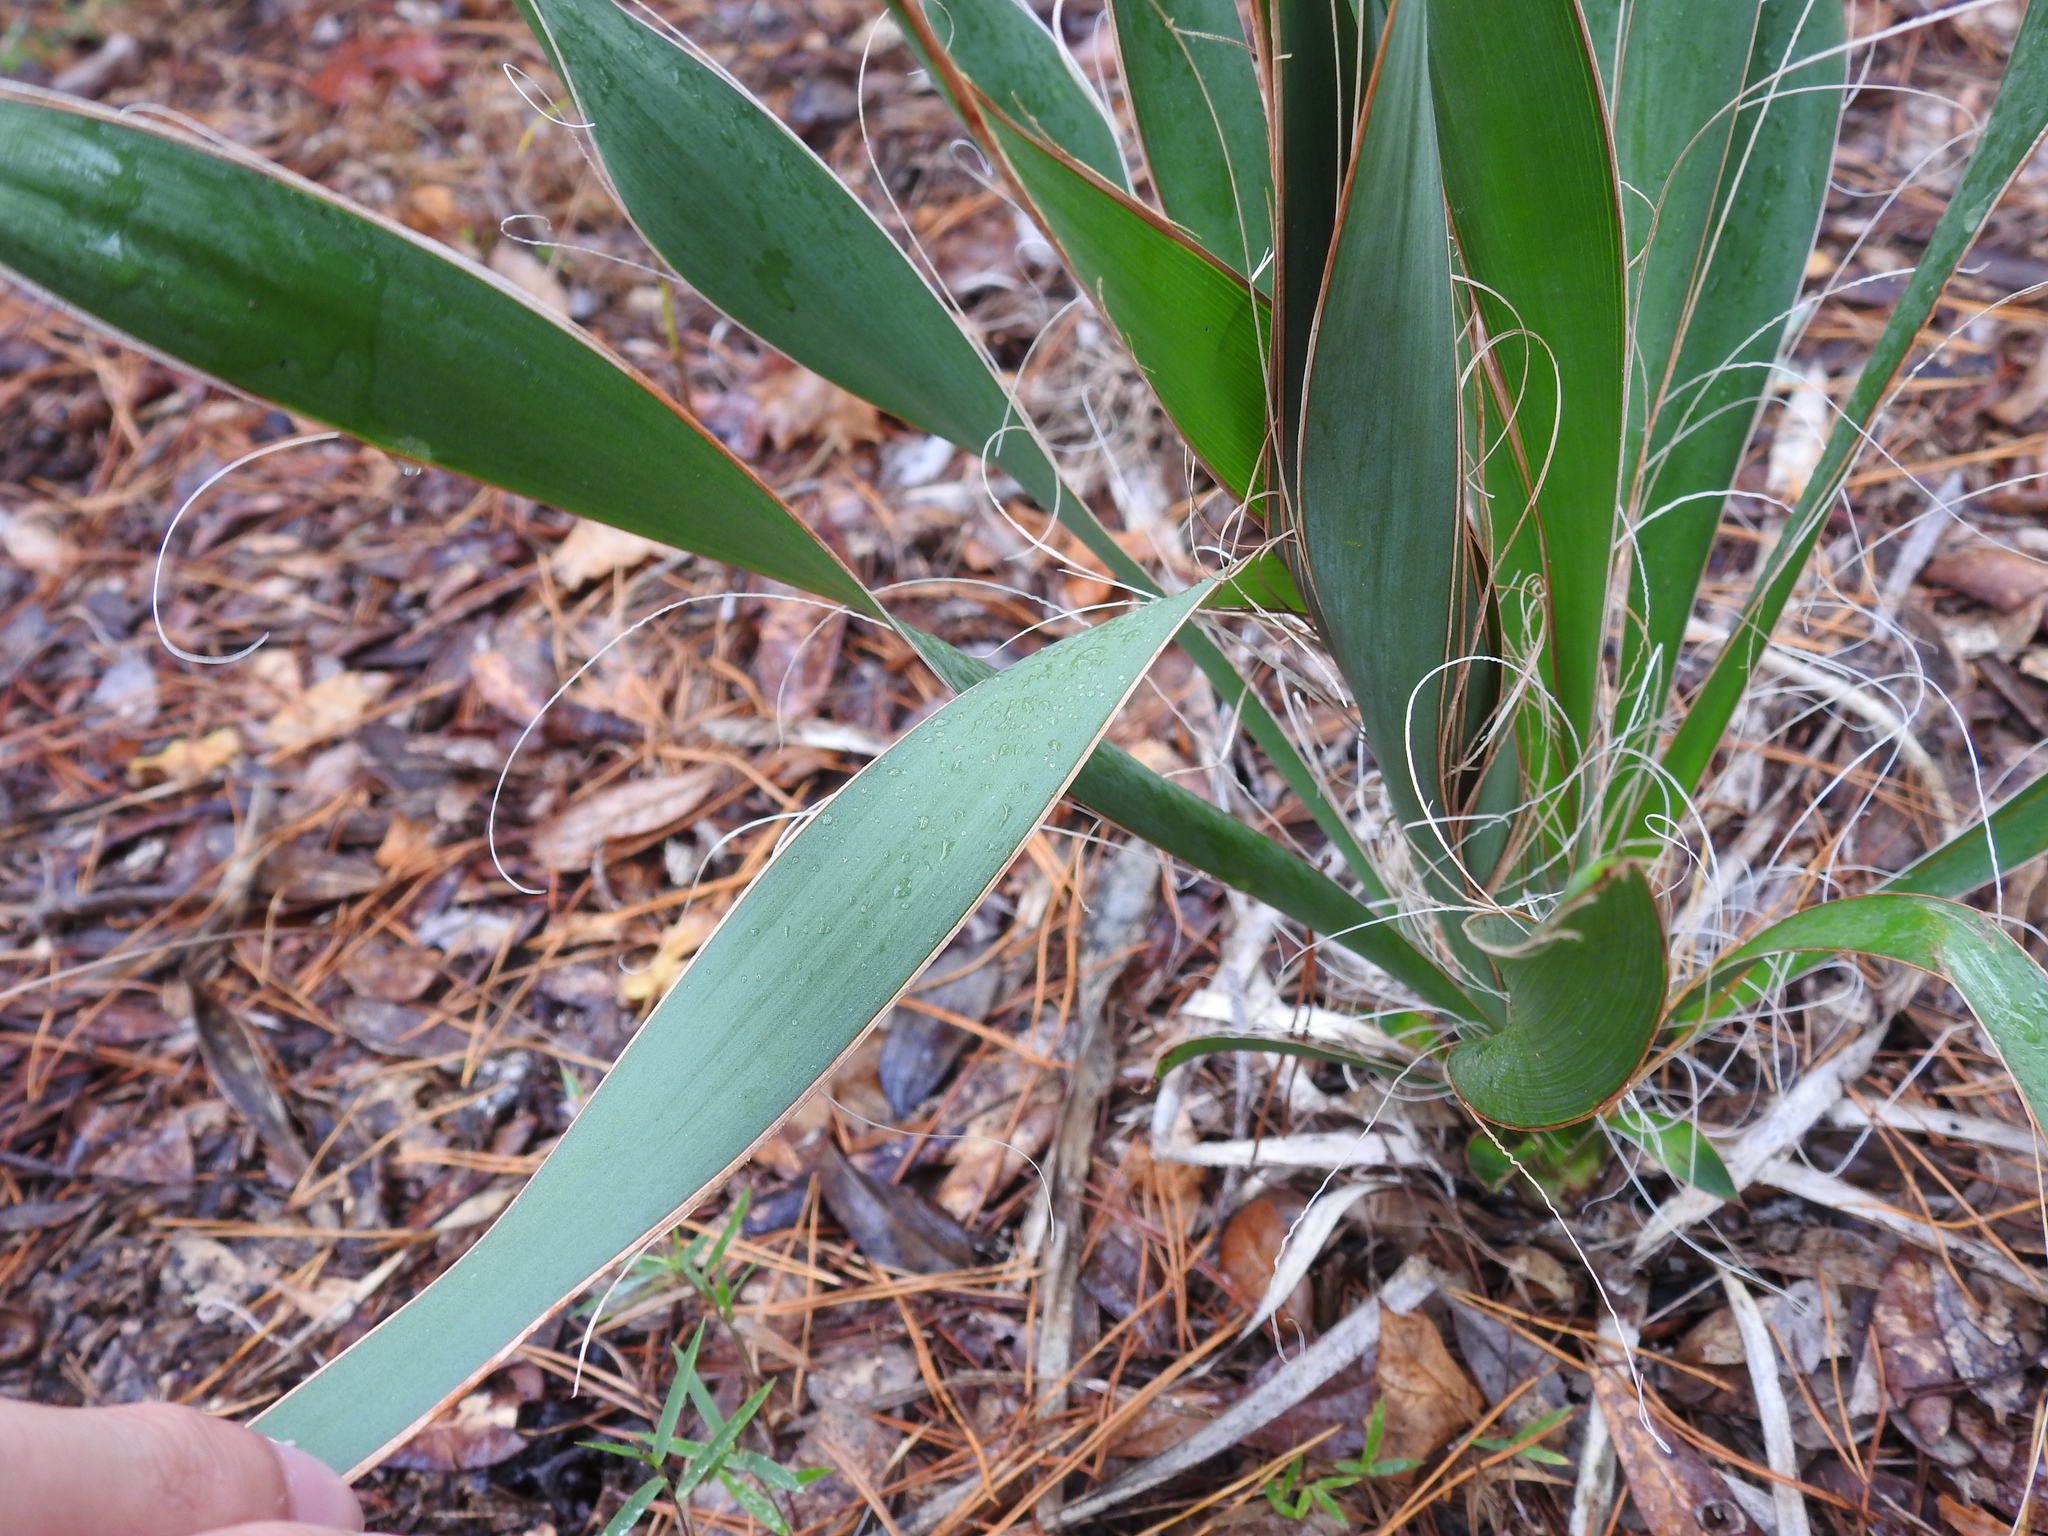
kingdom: Plantae
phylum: Tracheophyta
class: Liliopsida
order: Asparagales
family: Asparagaceae
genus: Yucca
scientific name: Yucca filamentosa
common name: Adam's-needle
